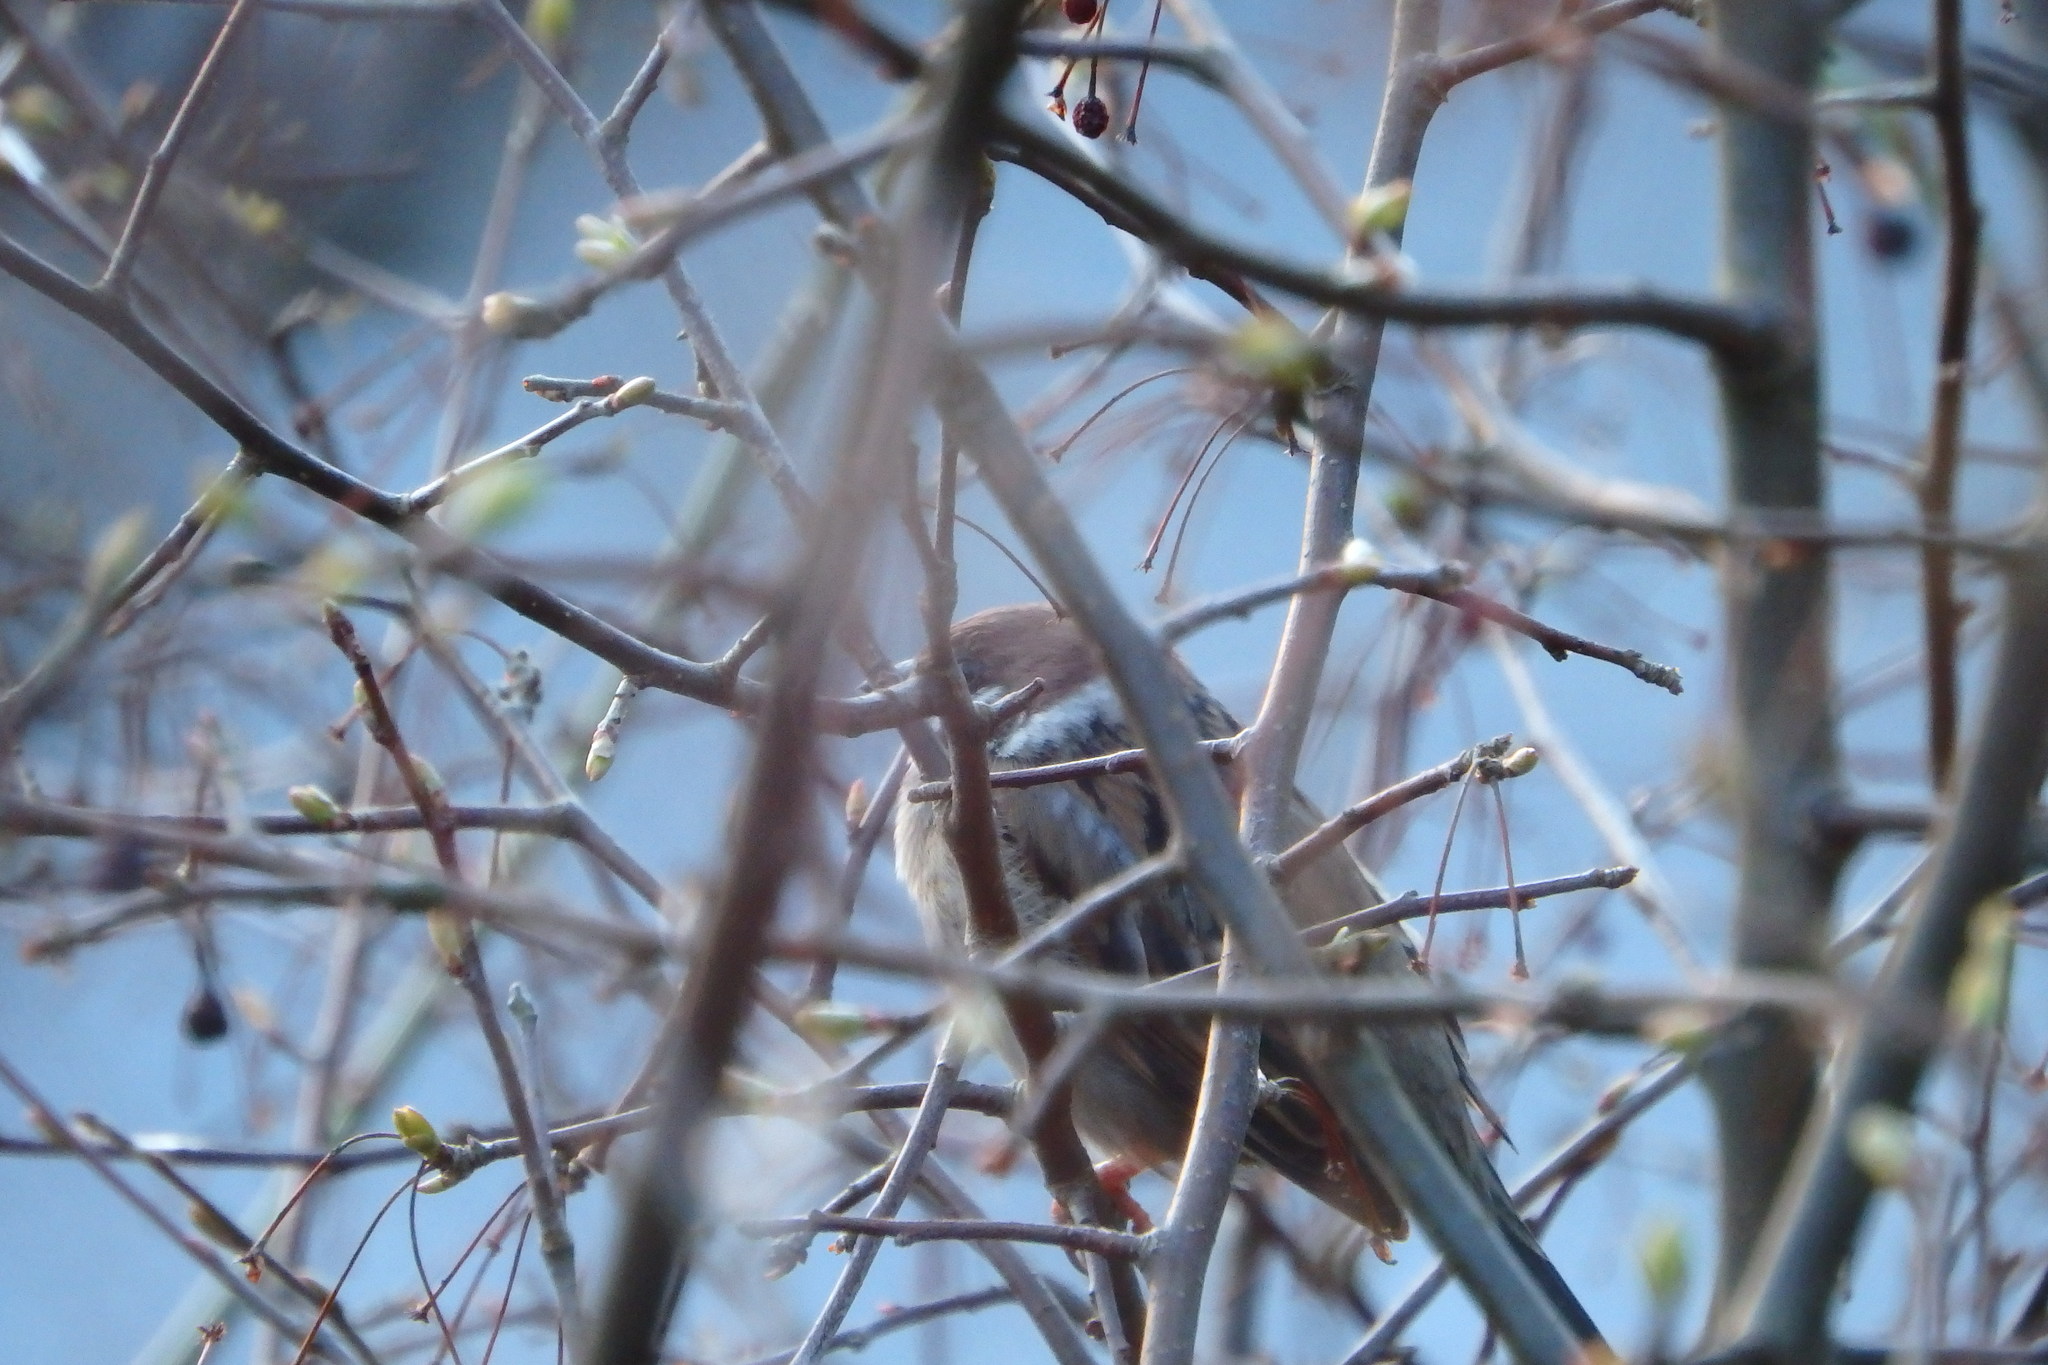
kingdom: Animalia
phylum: Chordata
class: Aves
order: Passeriformes
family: Passeridae
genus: Passer
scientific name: Passer montanus
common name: Eurasian tree sparrow
